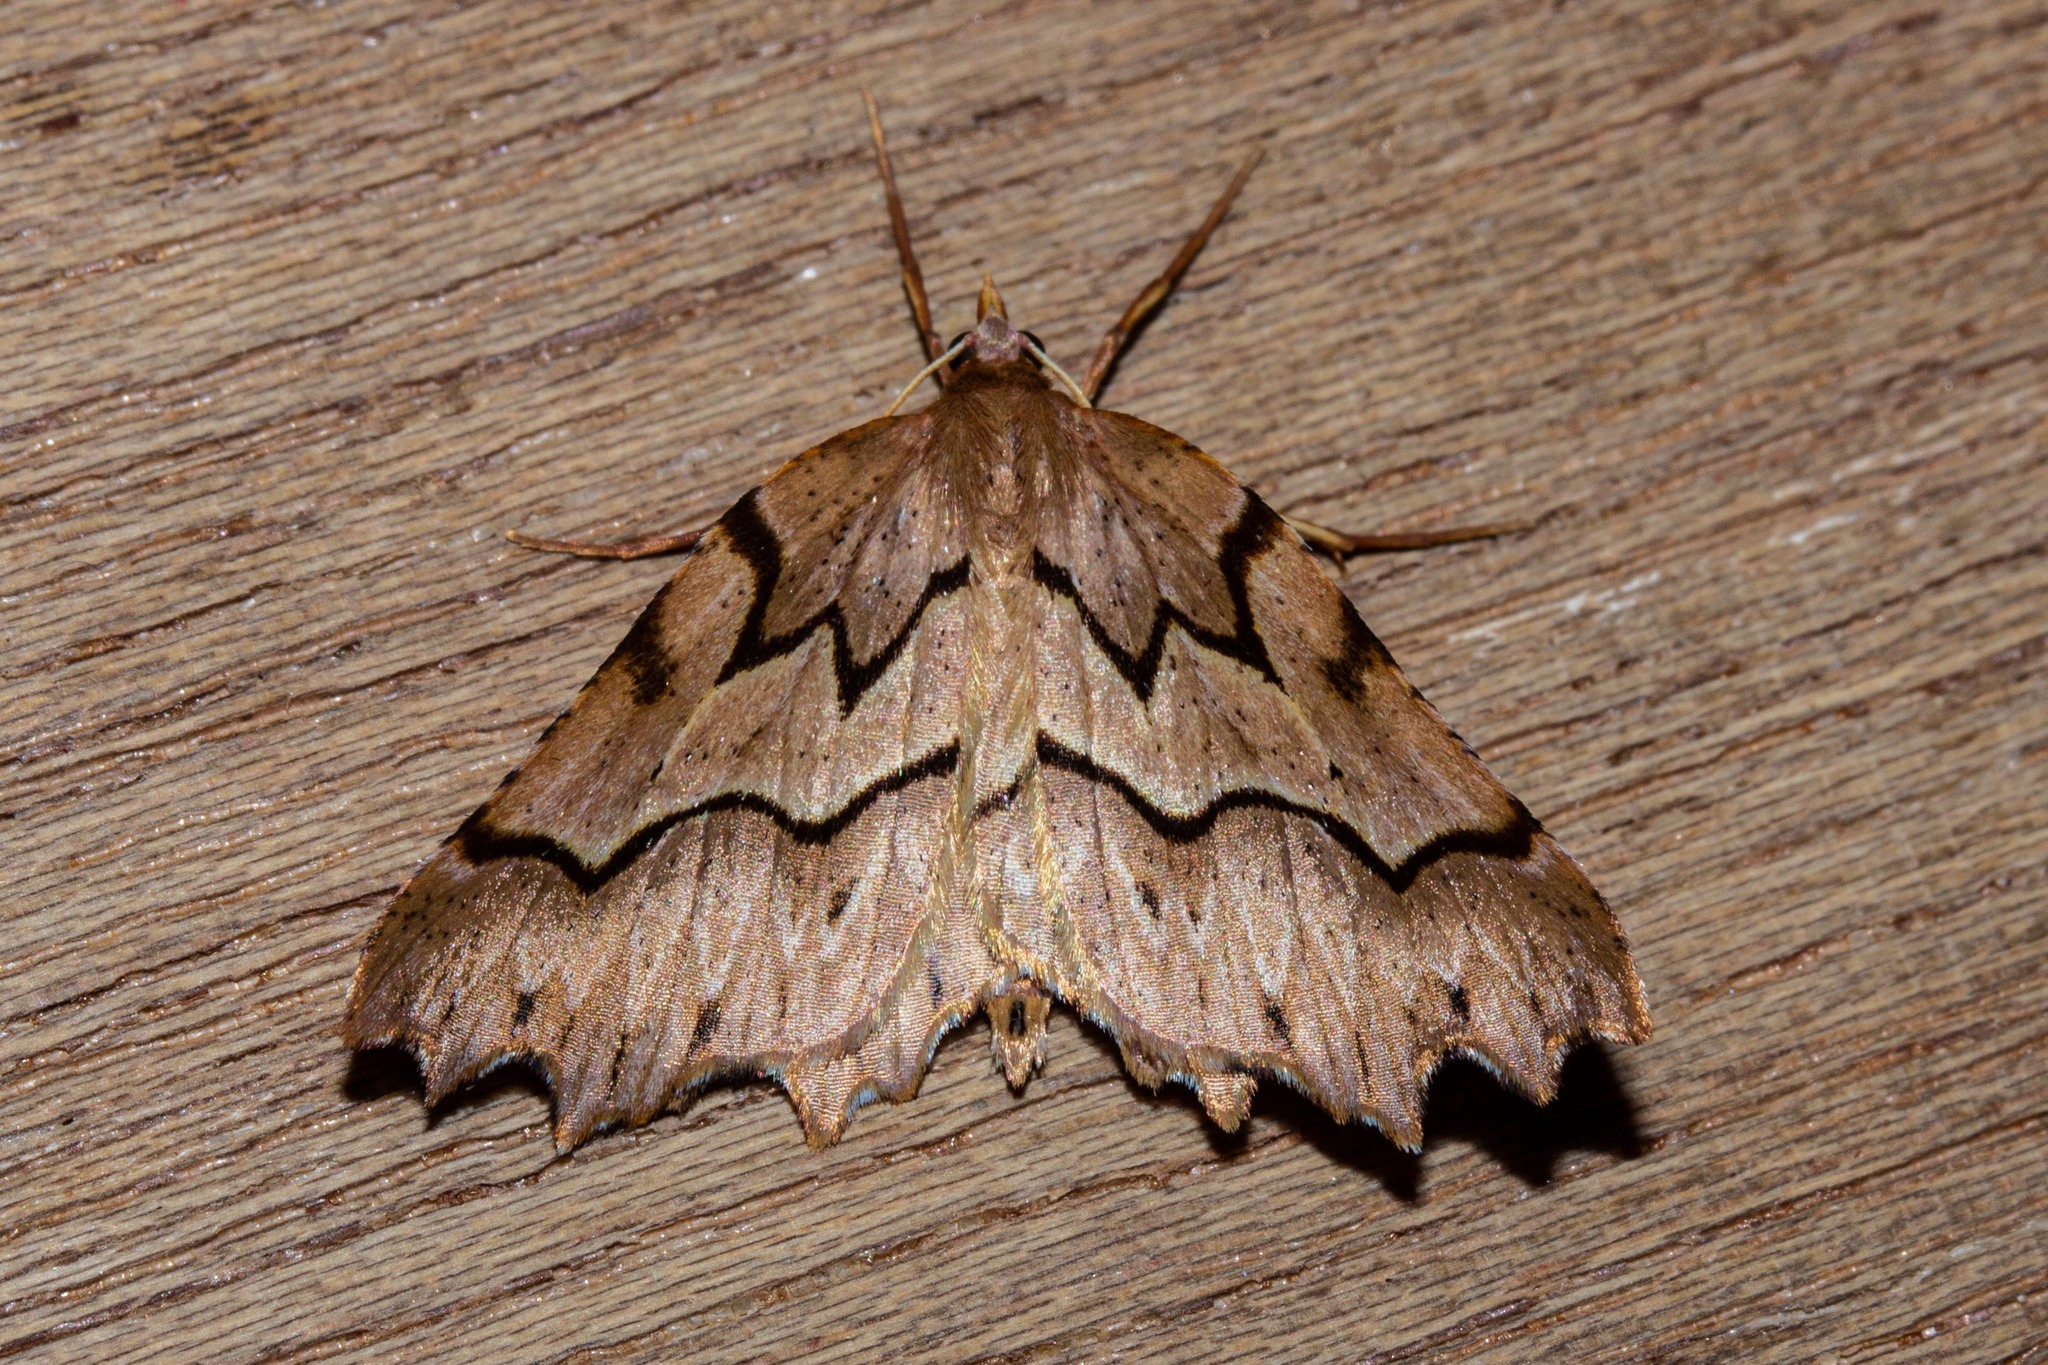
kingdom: Animalia
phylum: Arthropoda
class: Insecta
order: Lepidoptera
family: Geometridae
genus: Ischalis
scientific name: Ischalis fortinata
